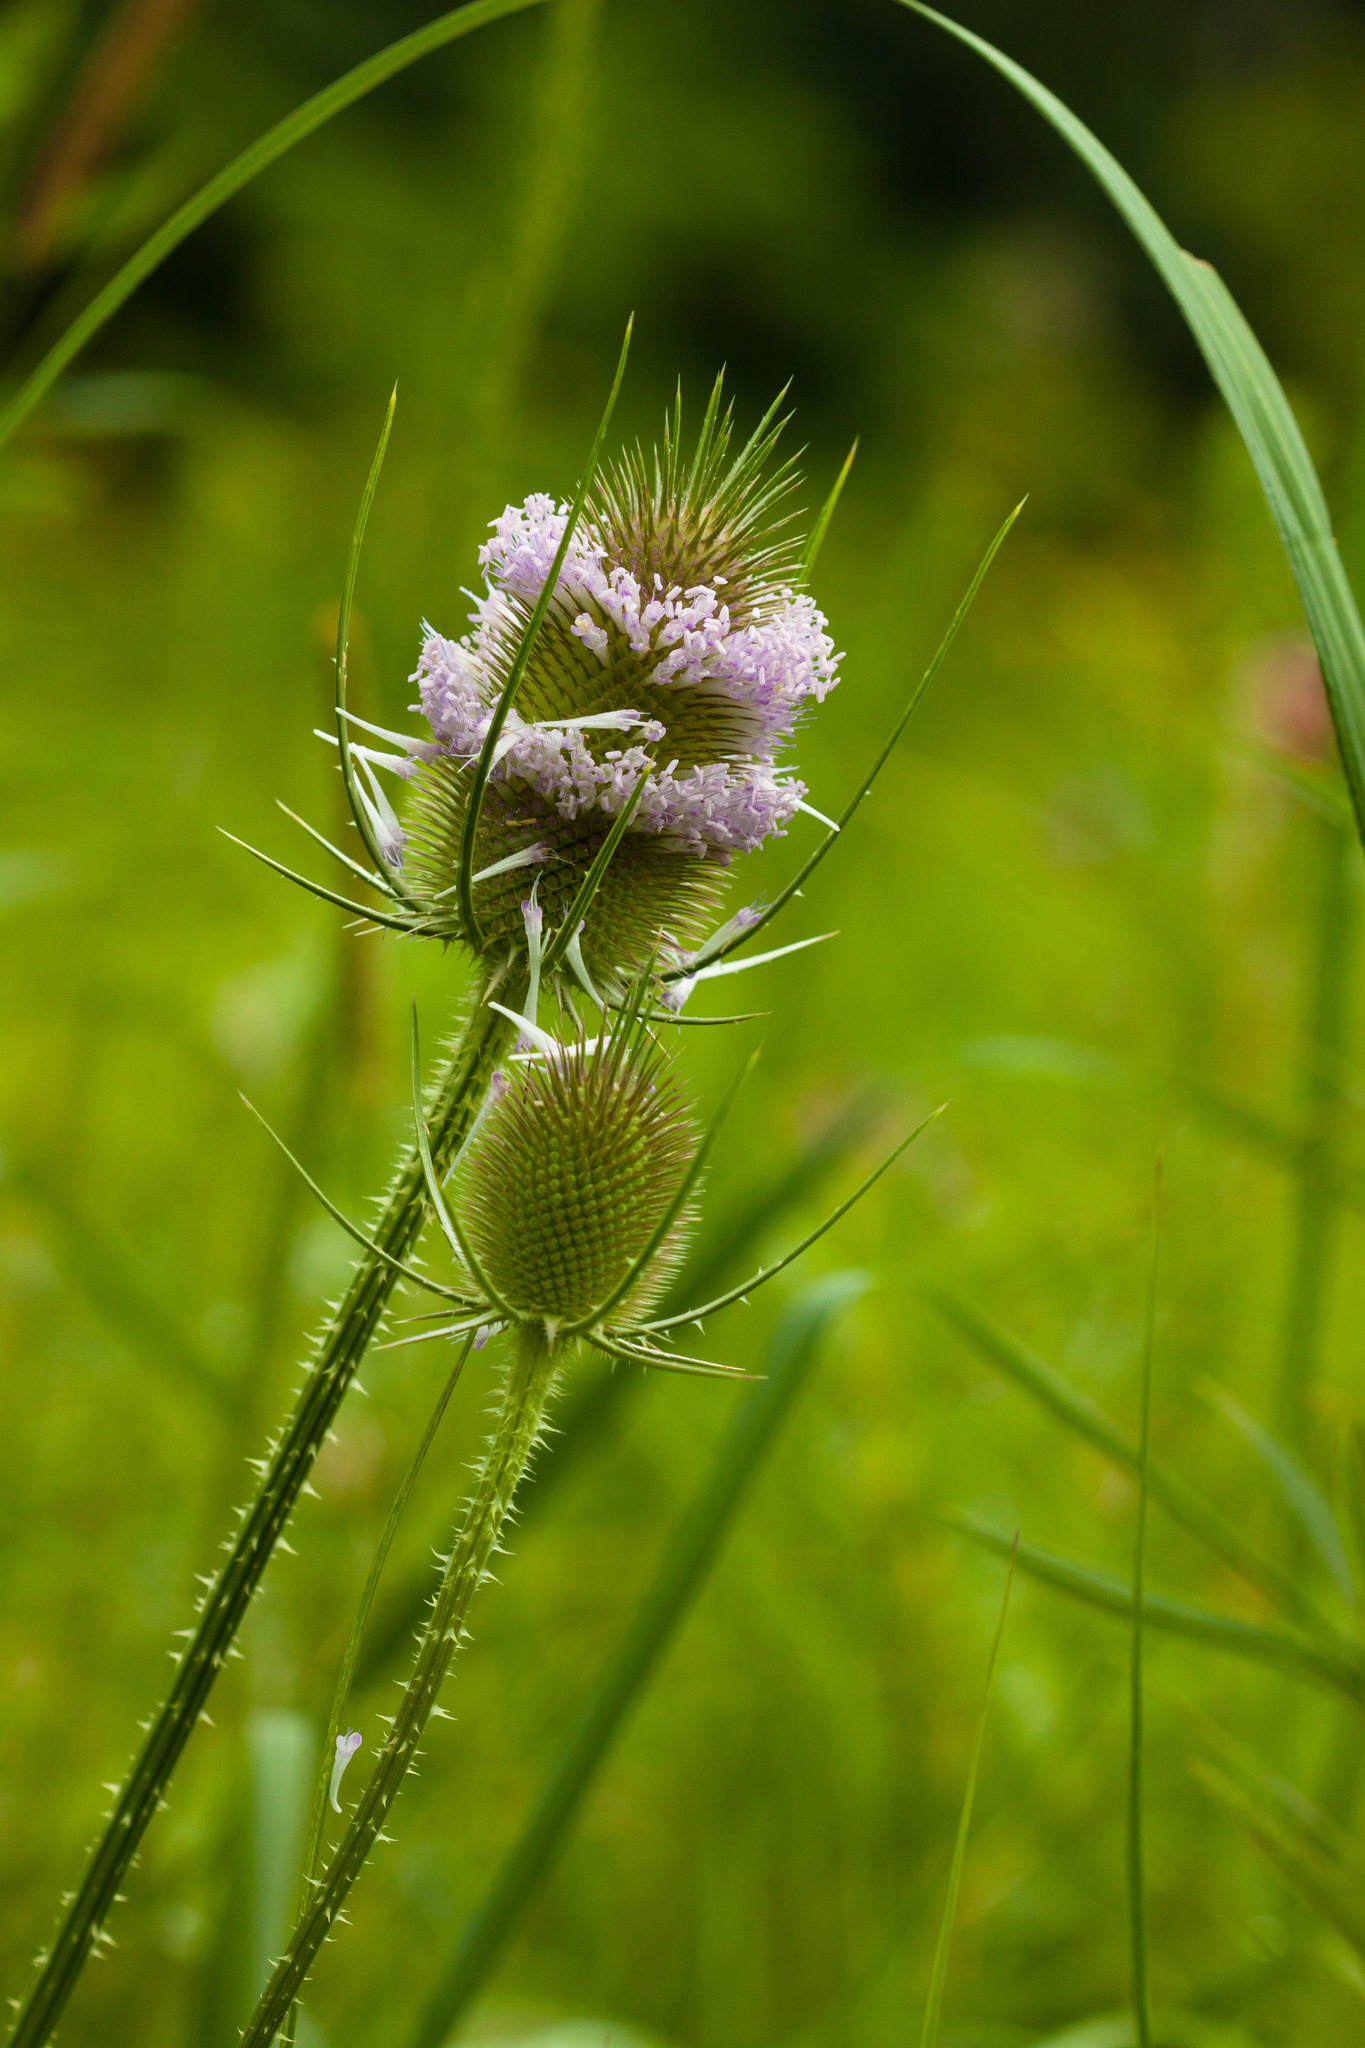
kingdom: Plantae
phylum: Tracheophyta
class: Magnoliopsida
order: Dipsacales
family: Caprifoliaceae
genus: Dipsacus
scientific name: Dipsacus fullonum
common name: Teasel
